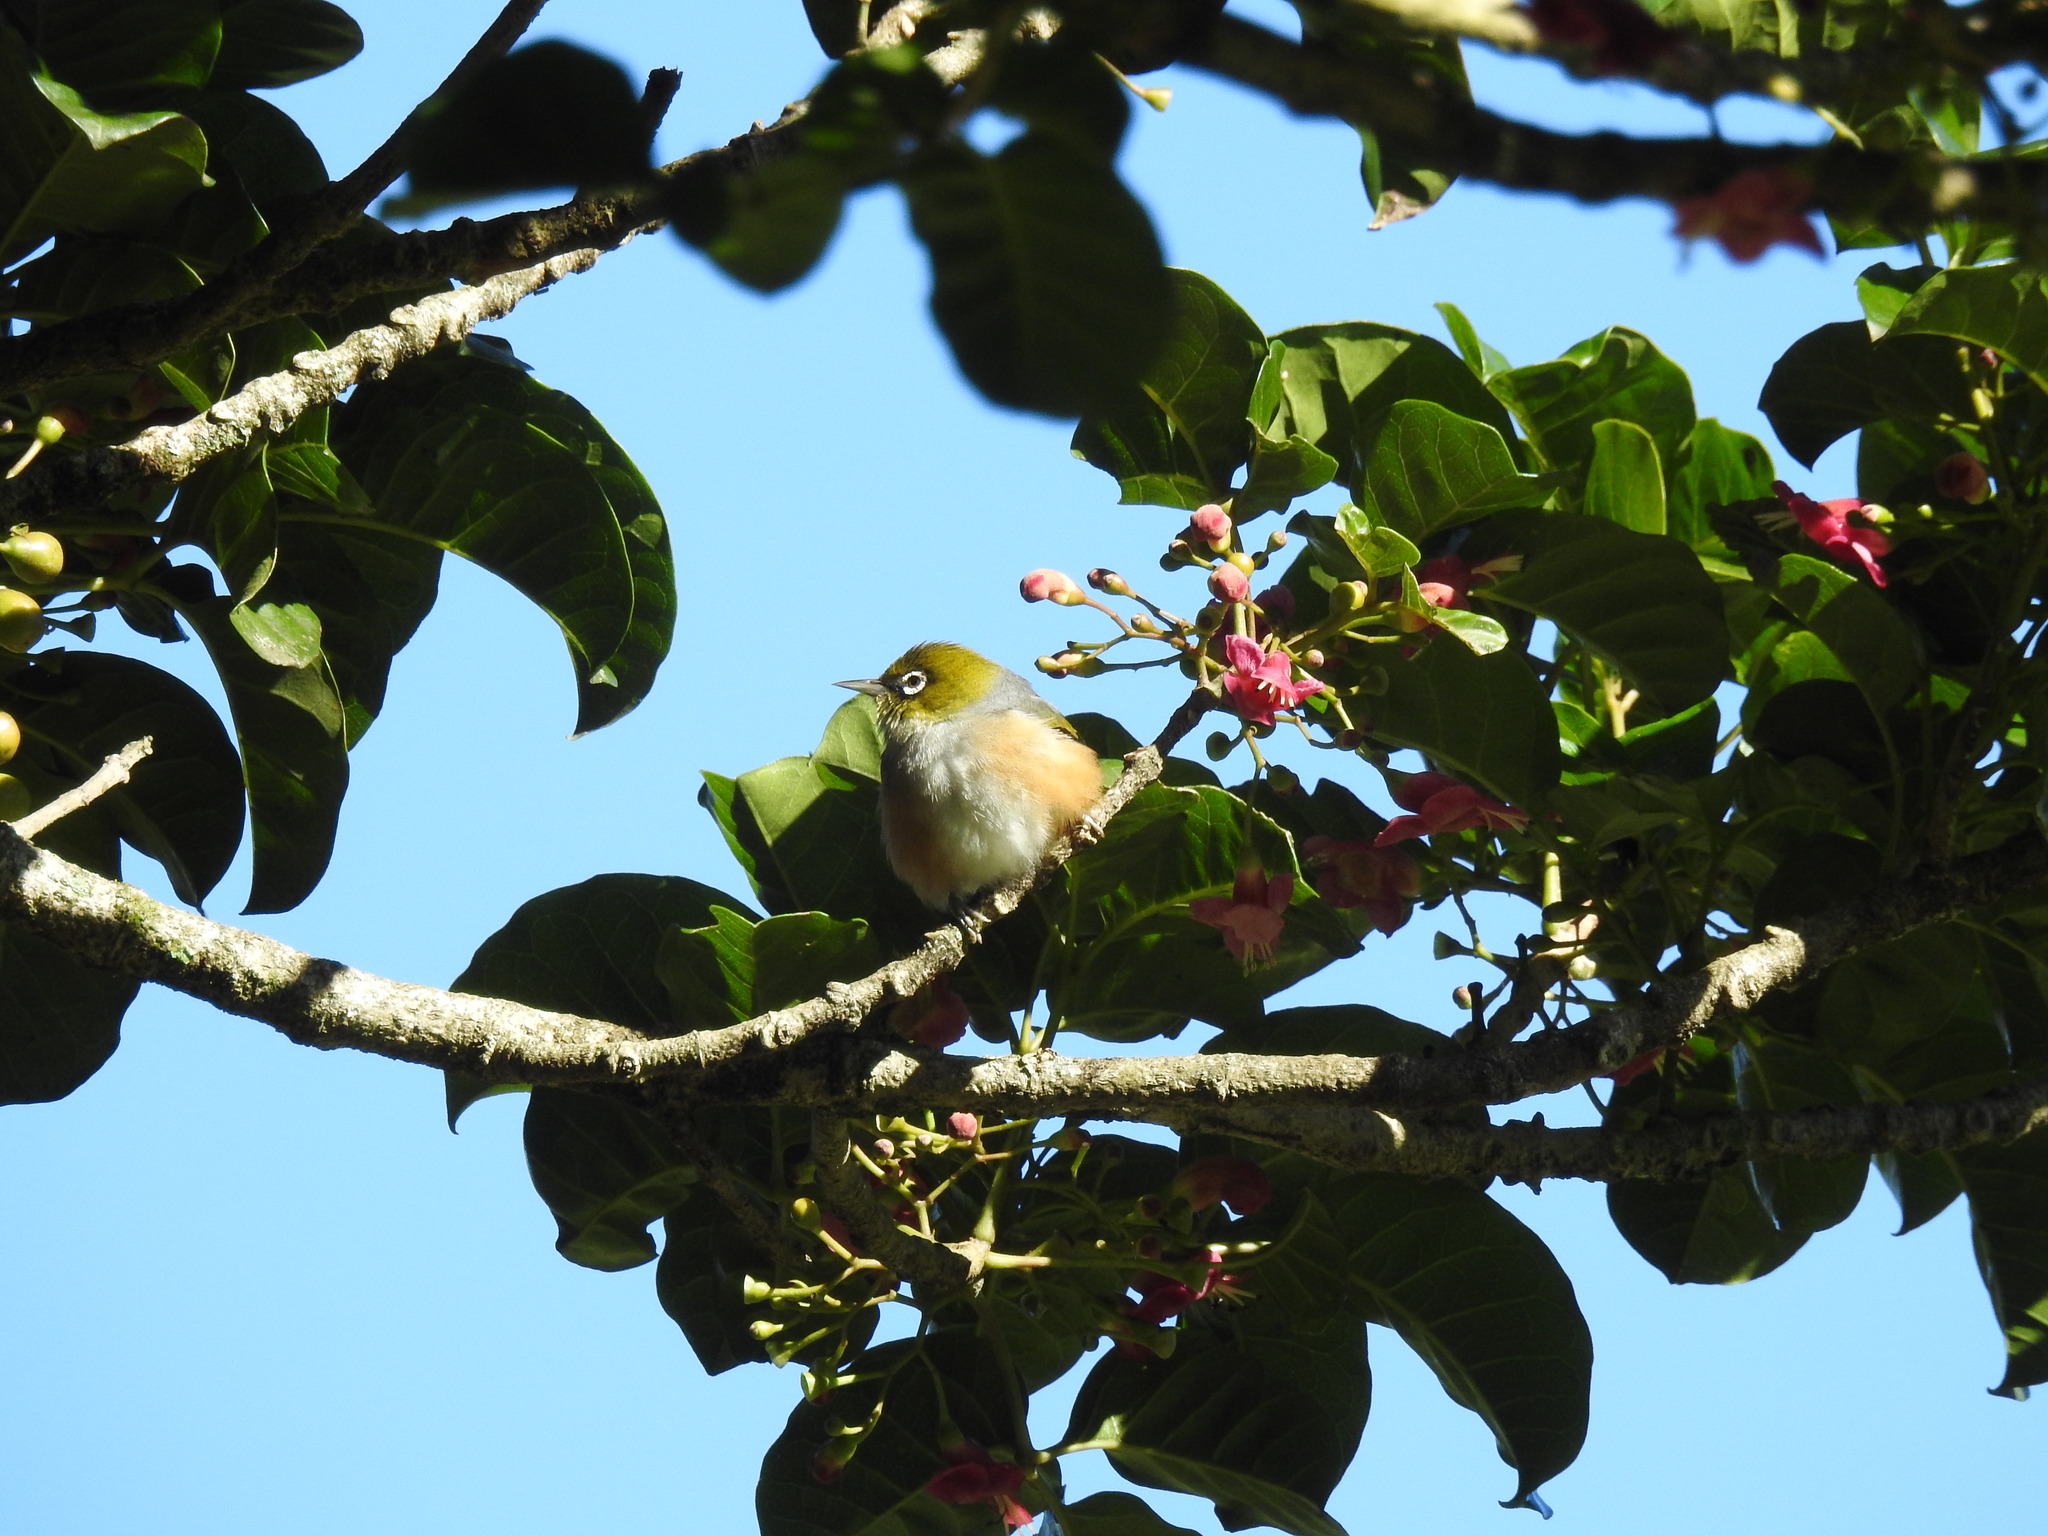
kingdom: Animalia
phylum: Chordata
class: Aves
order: Passeriformes
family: Zosteropidae
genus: Zosterops
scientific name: Zosterops lateralis
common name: Silvereye
